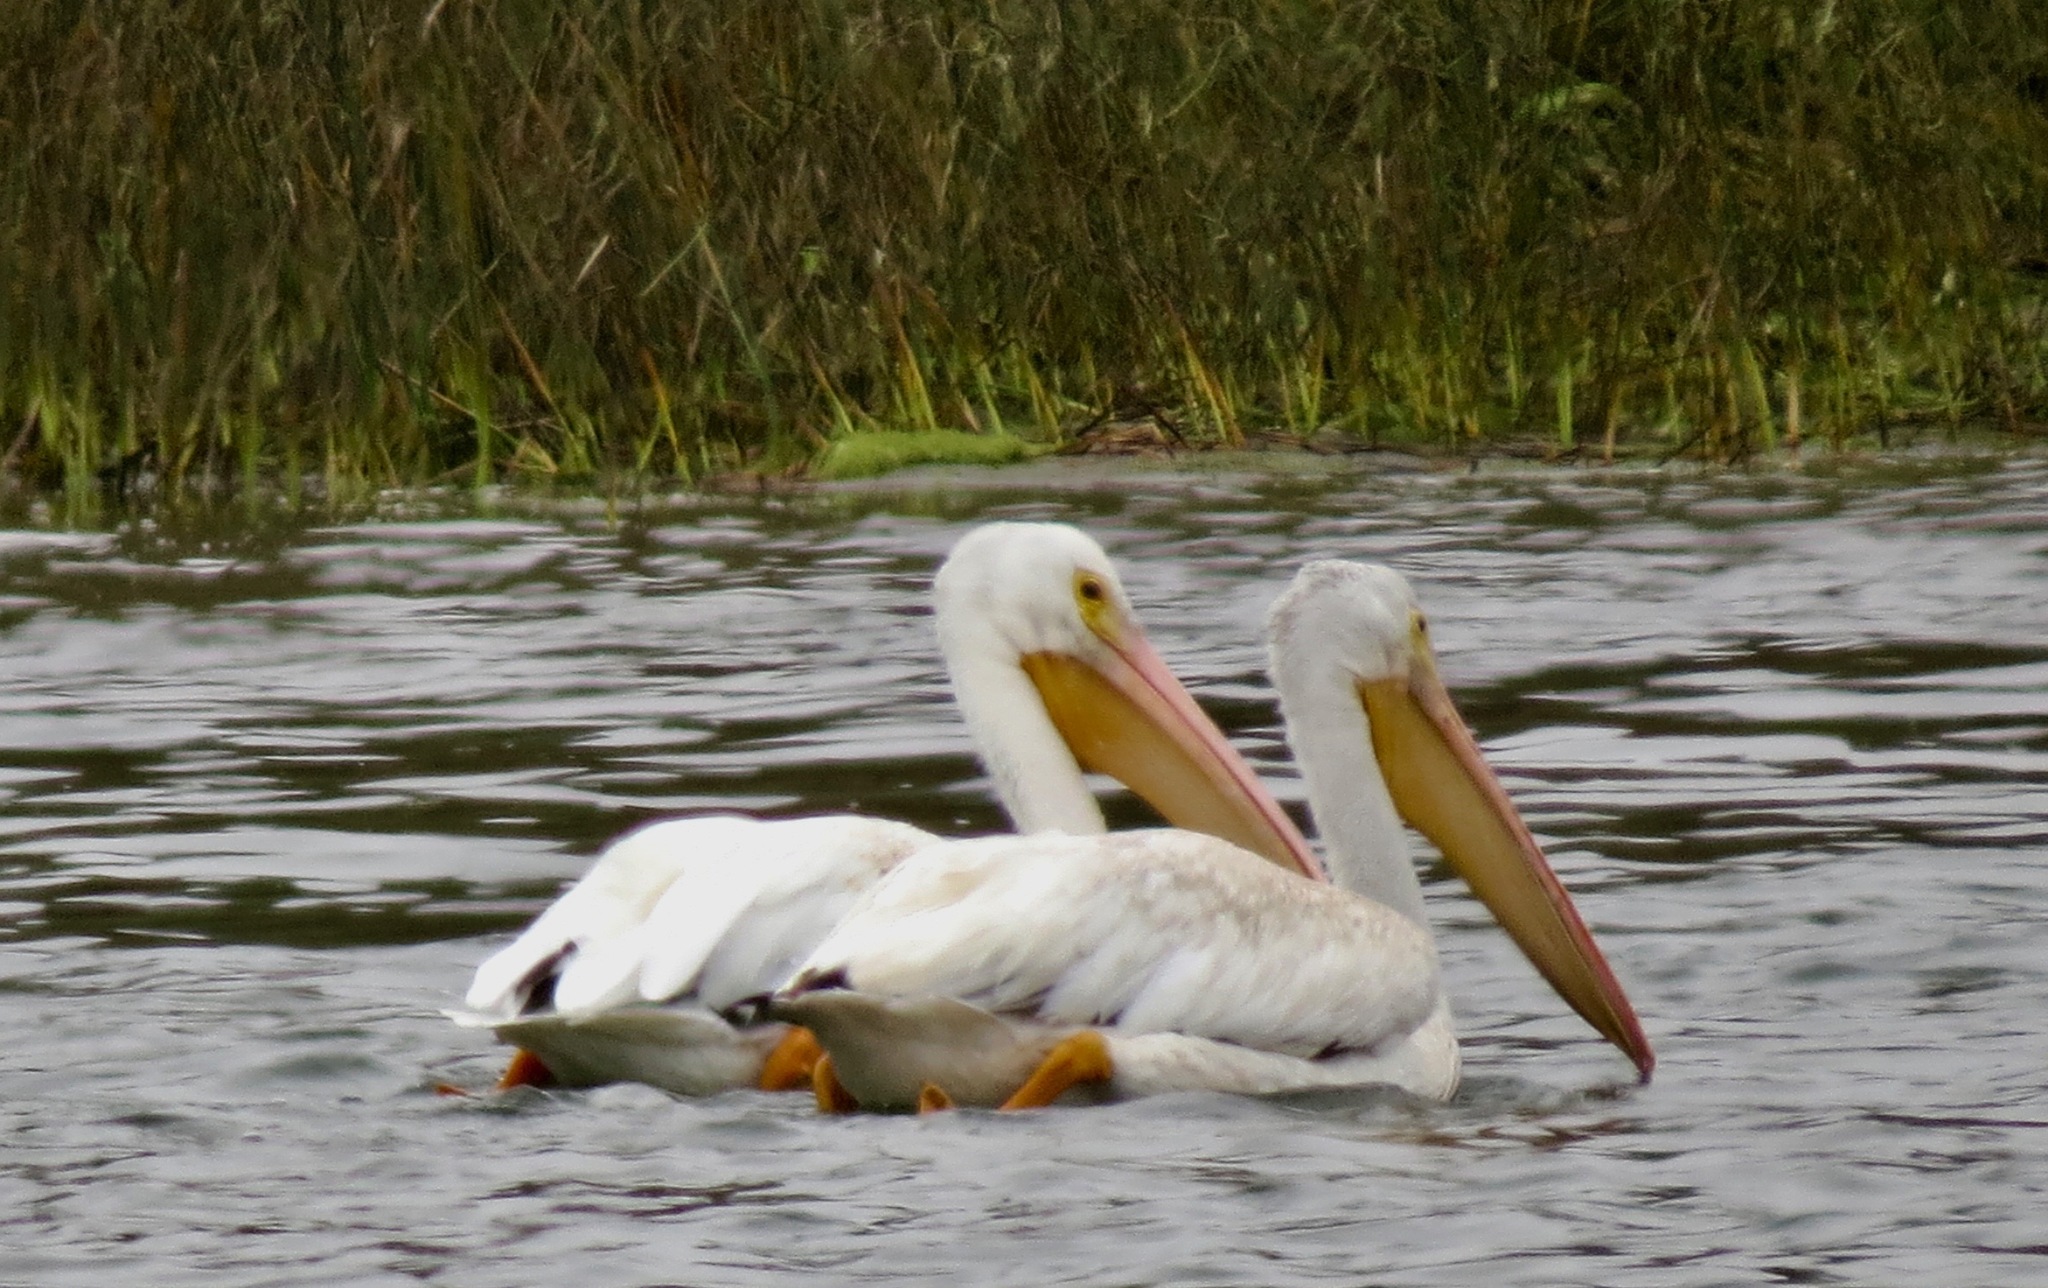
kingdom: Animalia
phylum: Chordata
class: Aves
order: Pelecaniformes
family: Pelecanidae
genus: Pelecanus
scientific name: Pelecanus erythrorhynchos
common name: American white pelican
